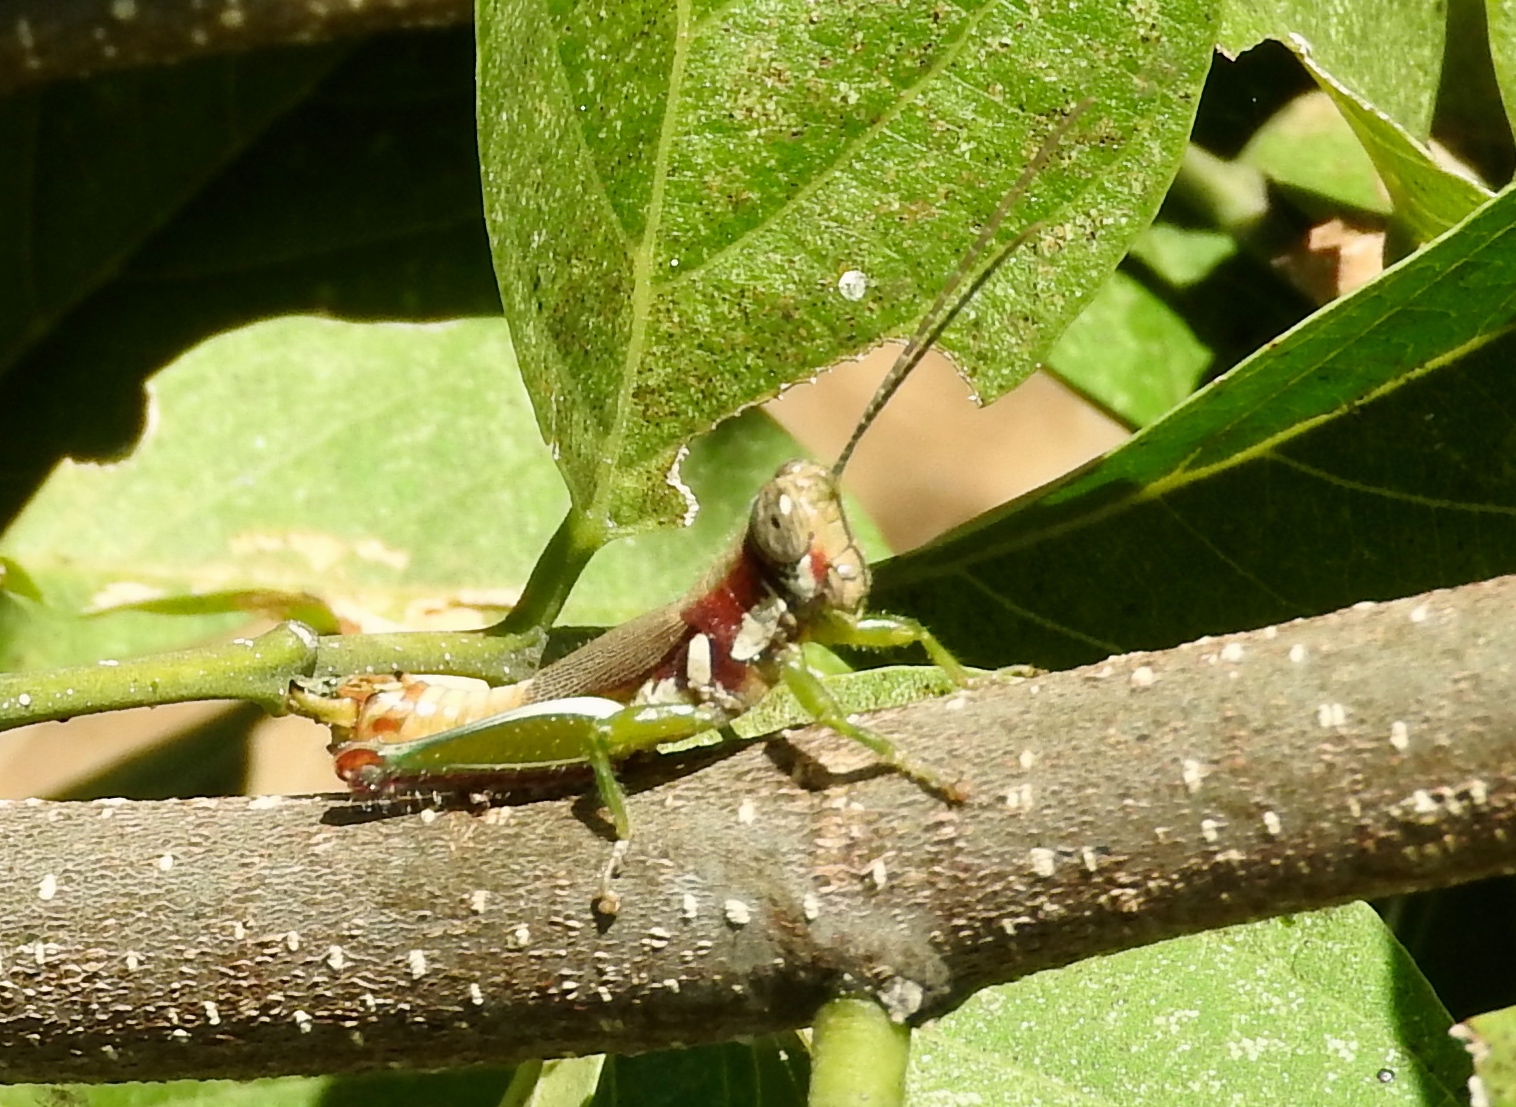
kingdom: Animalia
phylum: Arthropoda
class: Insecta
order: Orthoptera
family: Acrididae
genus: Proctolabus
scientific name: Proctolabus cerciatus
